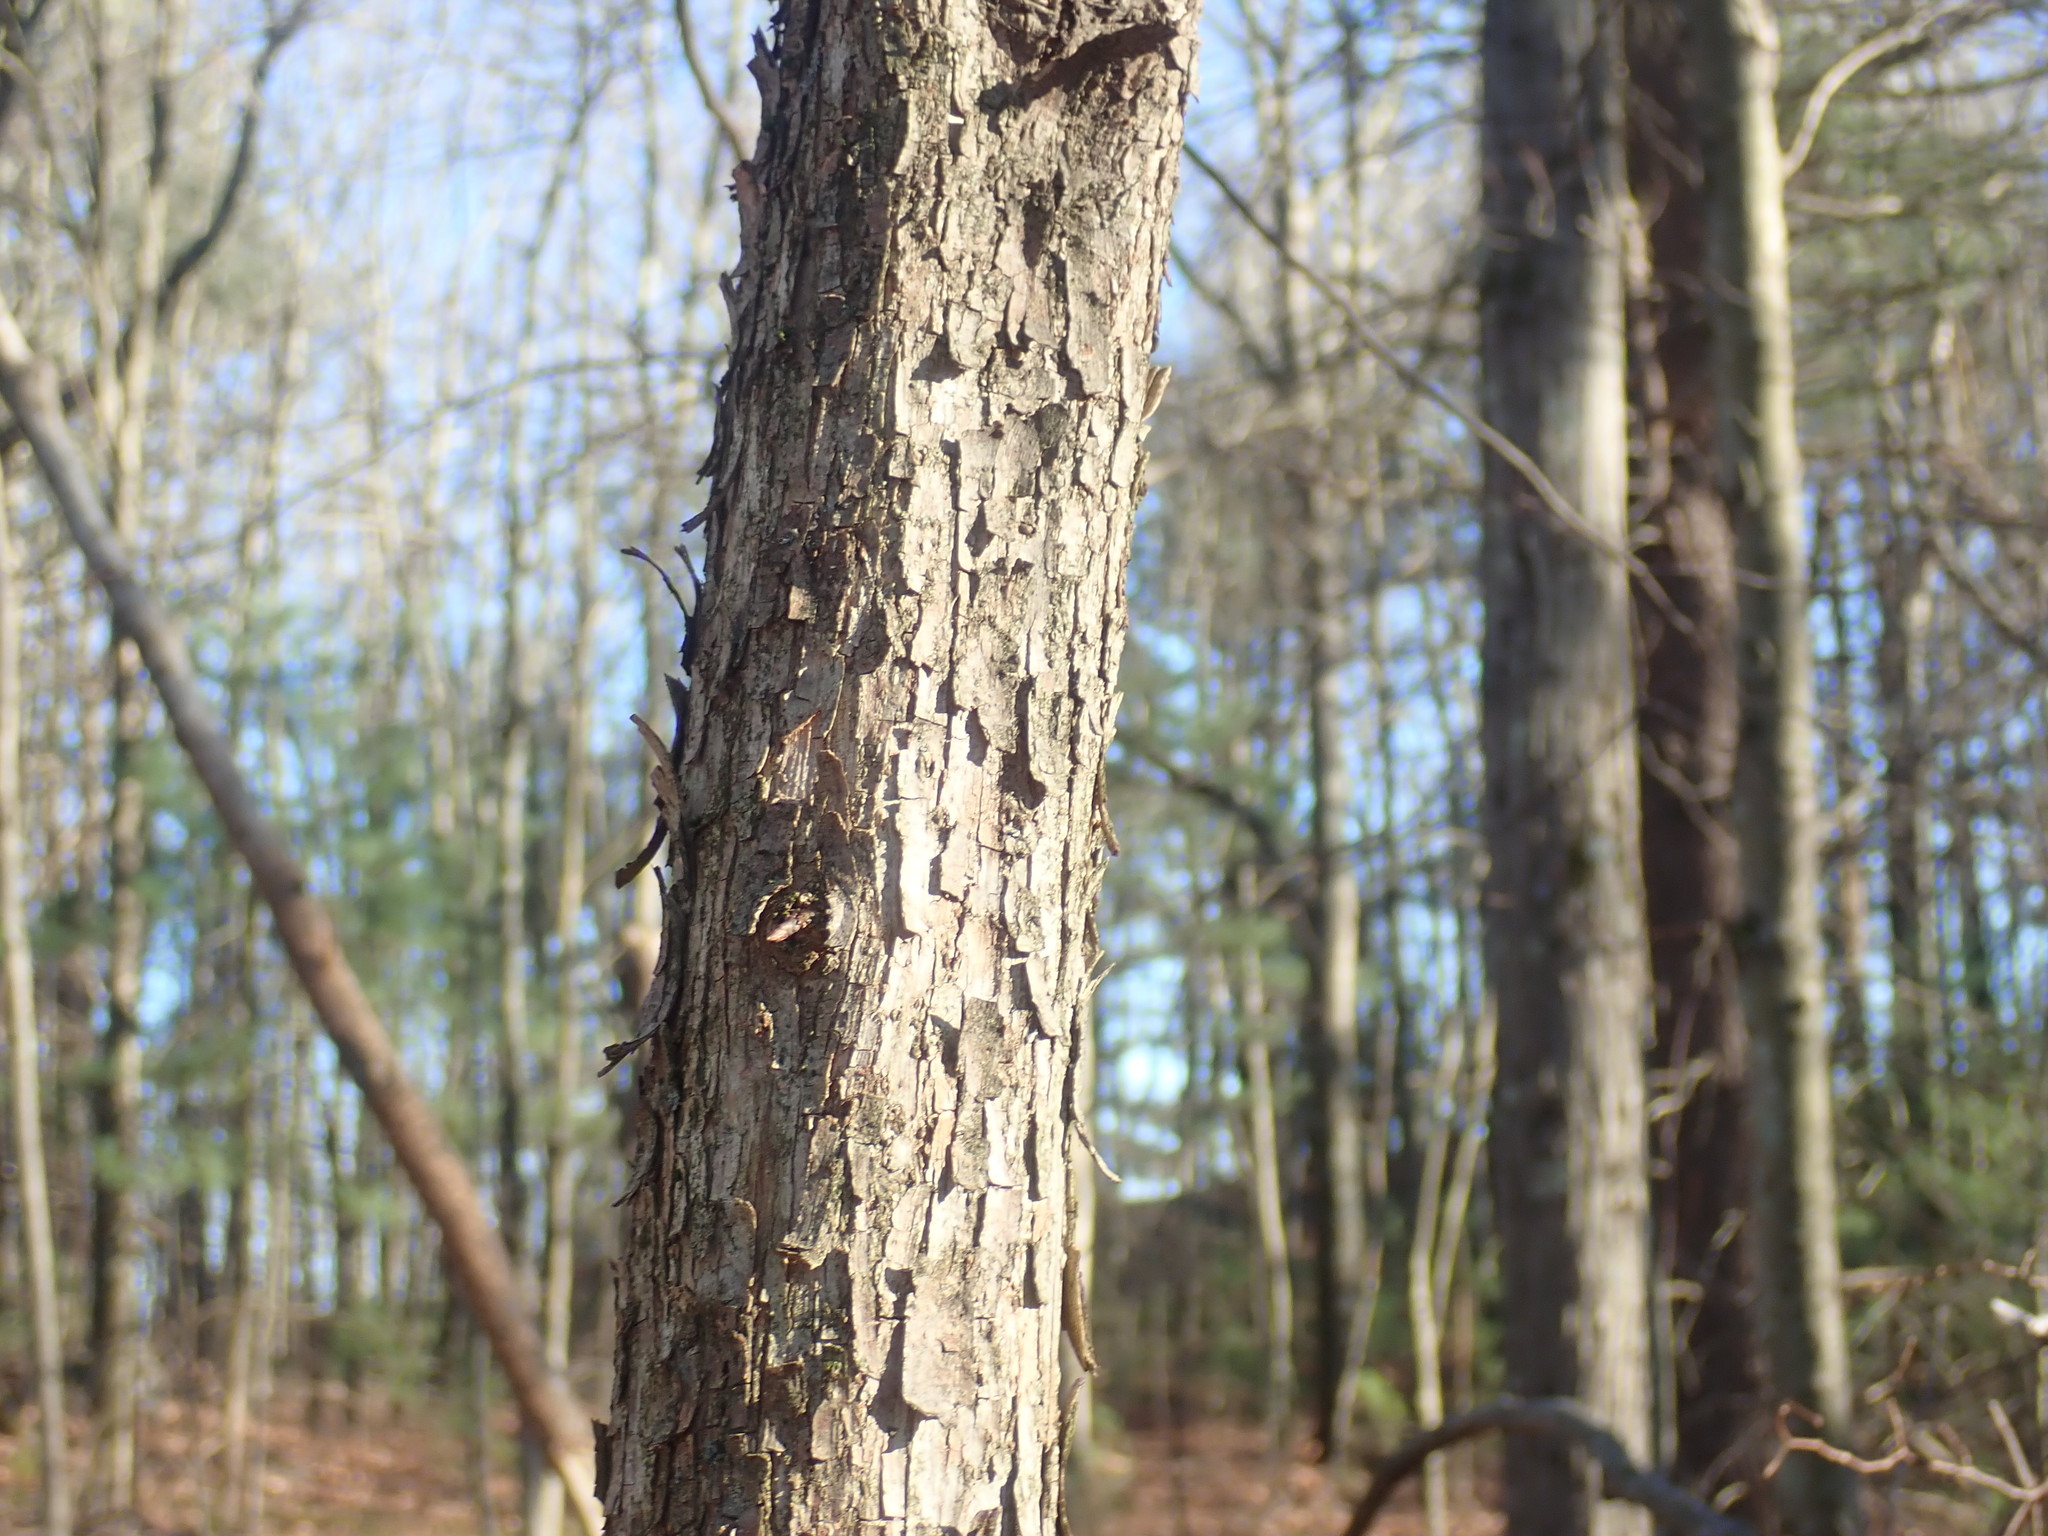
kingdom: Plantae
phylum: Tracheophyta
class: Magnoliopsida
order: Fagales
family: Betulaceae
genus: Ostrya
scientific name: Ostrya virginiana
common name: Ironwood
